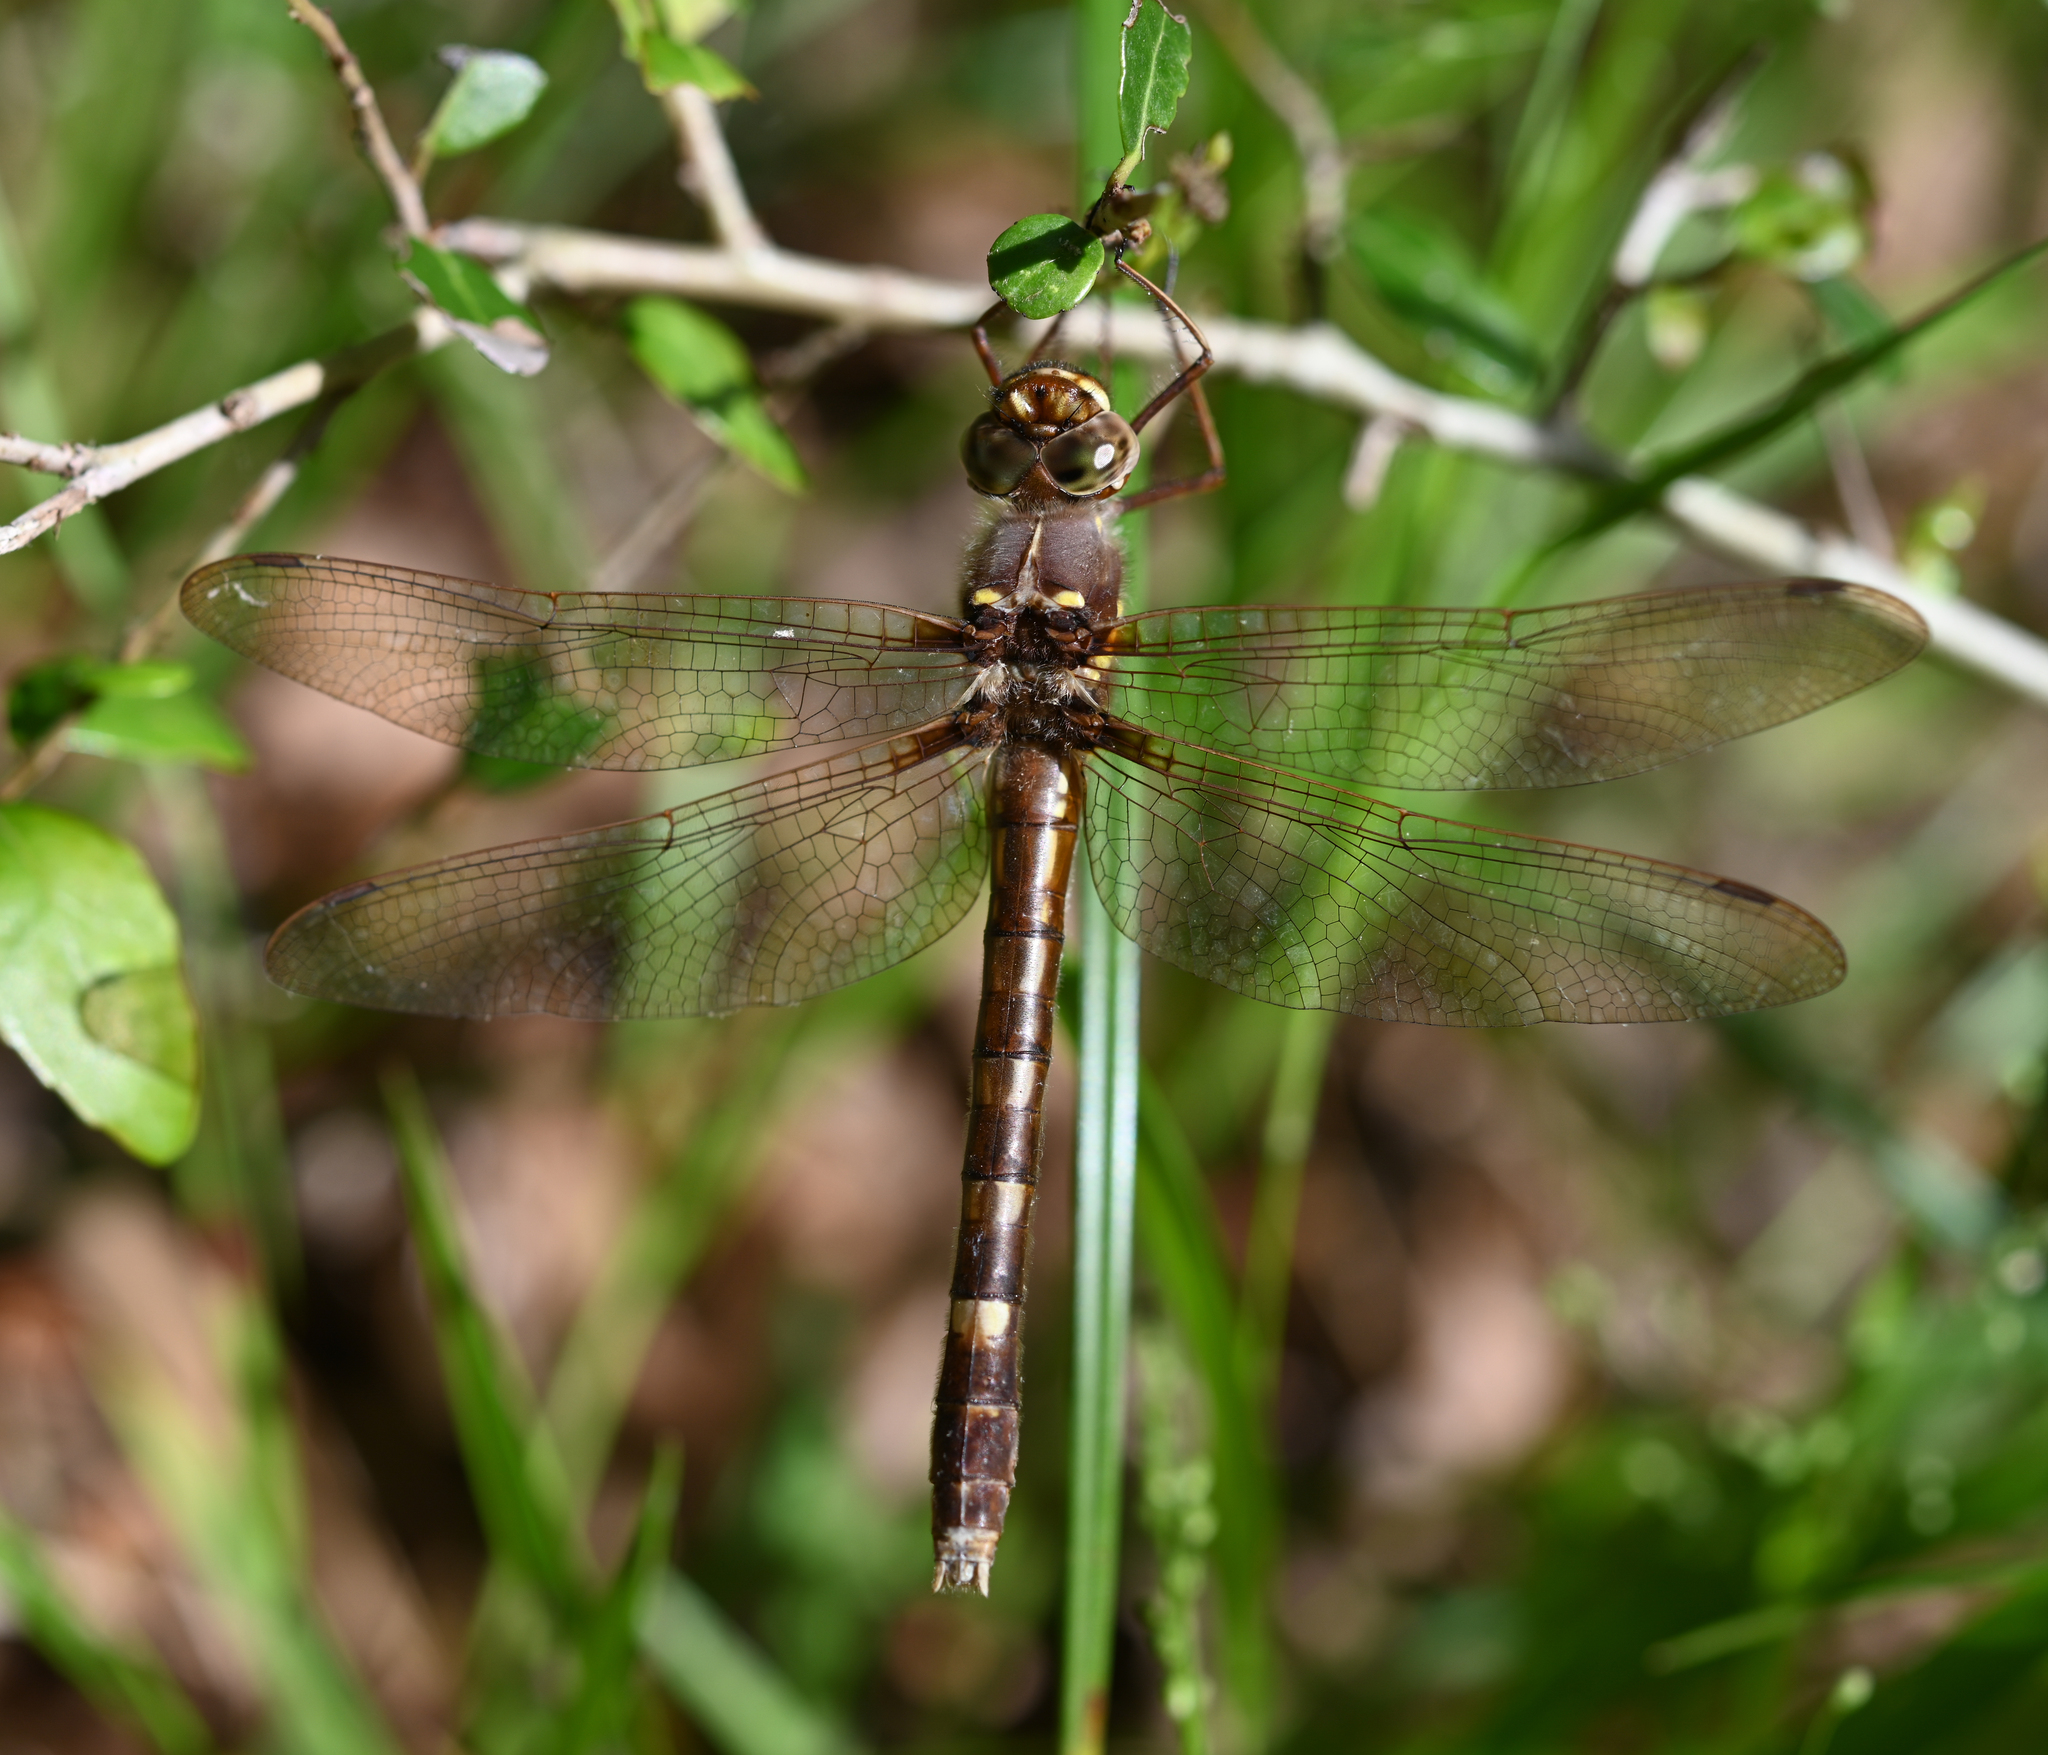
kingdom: Animalia
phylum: Arthropoda
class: Insecta
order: Odonata
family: Macromiidae
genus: Didymops
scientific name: Didymops transversa
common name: Stream cruiser
